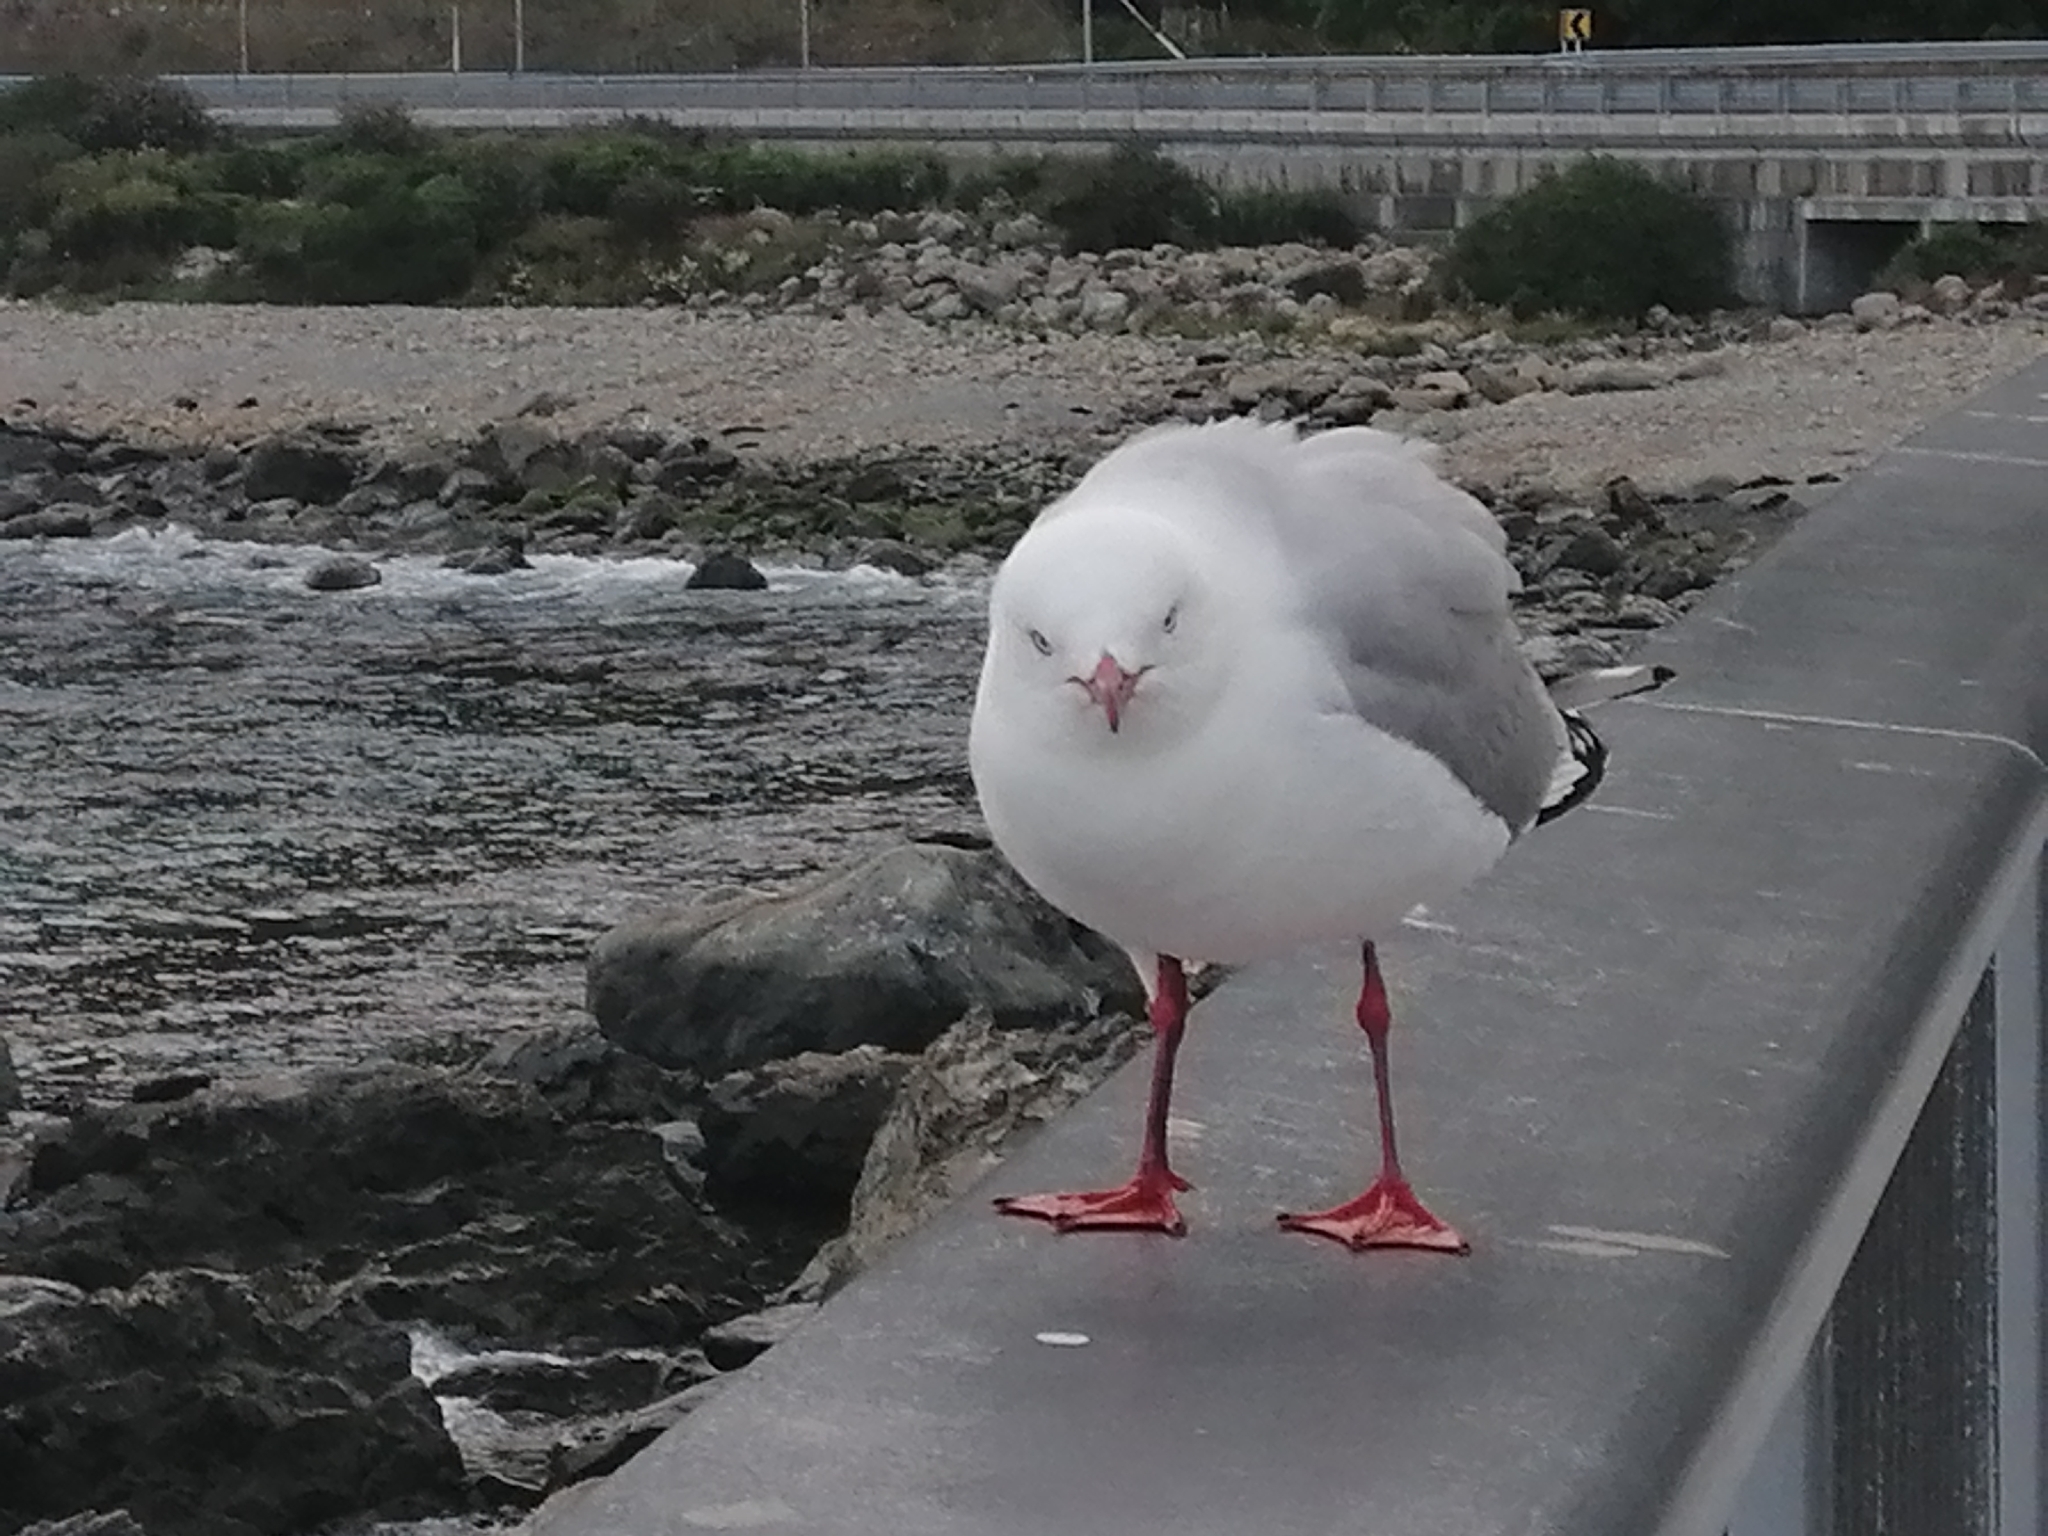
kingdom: Animalia
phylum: Chordata
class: Aves
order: Charadriiformes
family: Laridae
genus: Chroicocephalus
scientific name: Chroicocephalus novaehollandiae
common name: Silver gull
